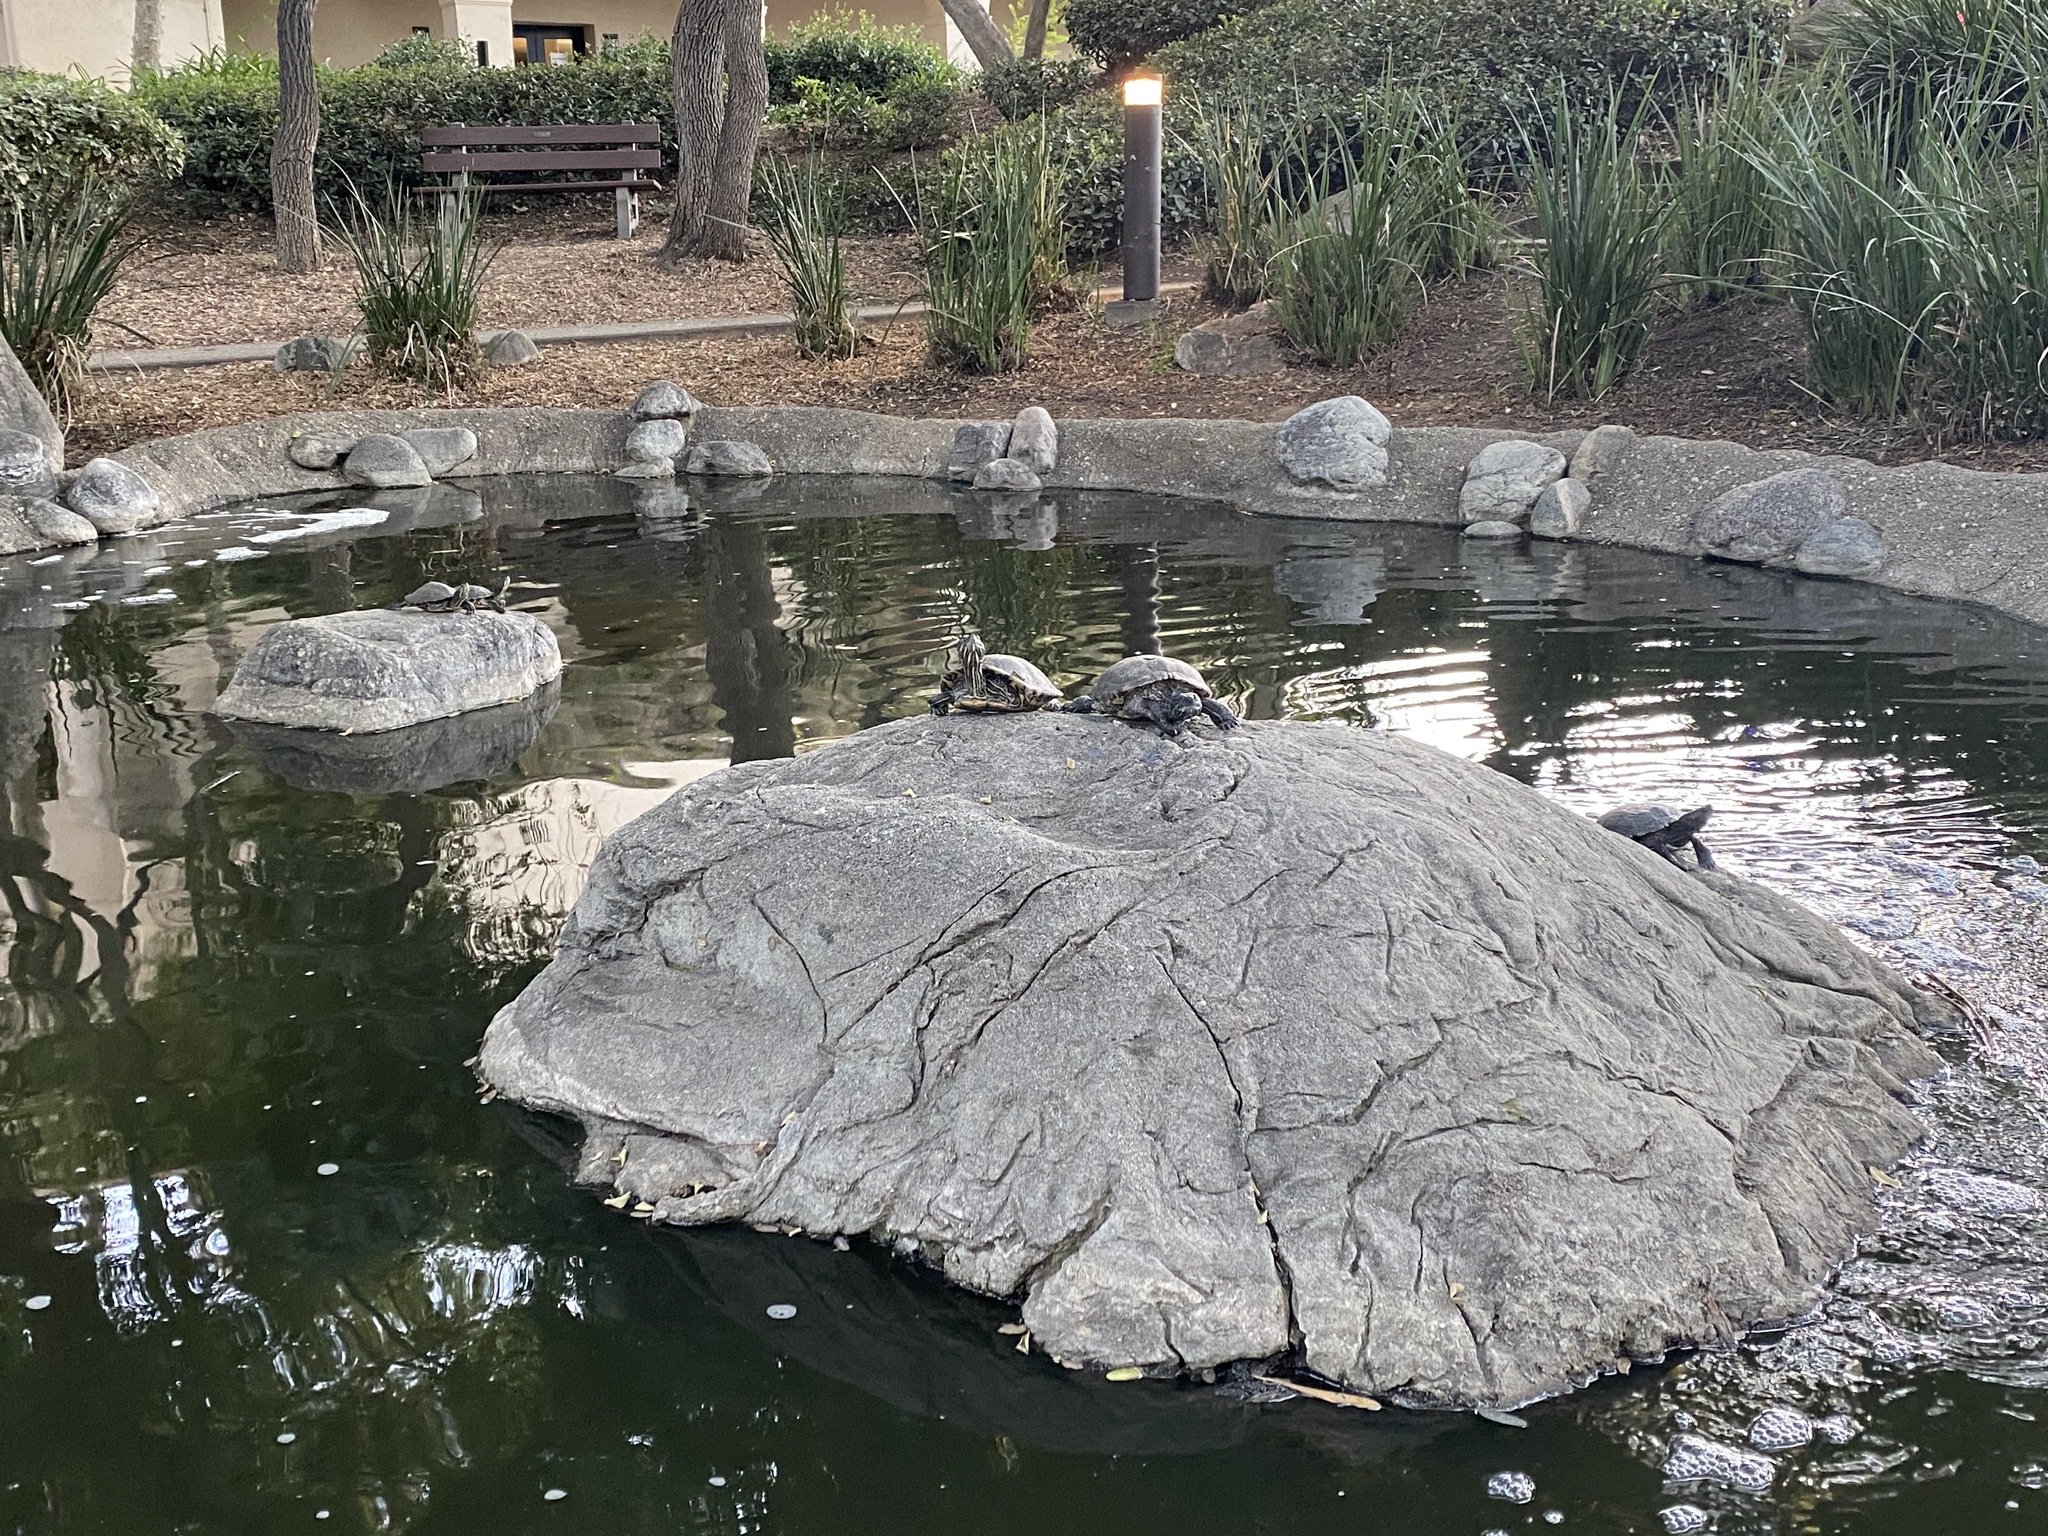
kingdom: Animalia
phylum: Chordata
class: Testudines
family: Emydidae
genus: Trachemys
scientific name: Trachemys scripta
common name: Slider
